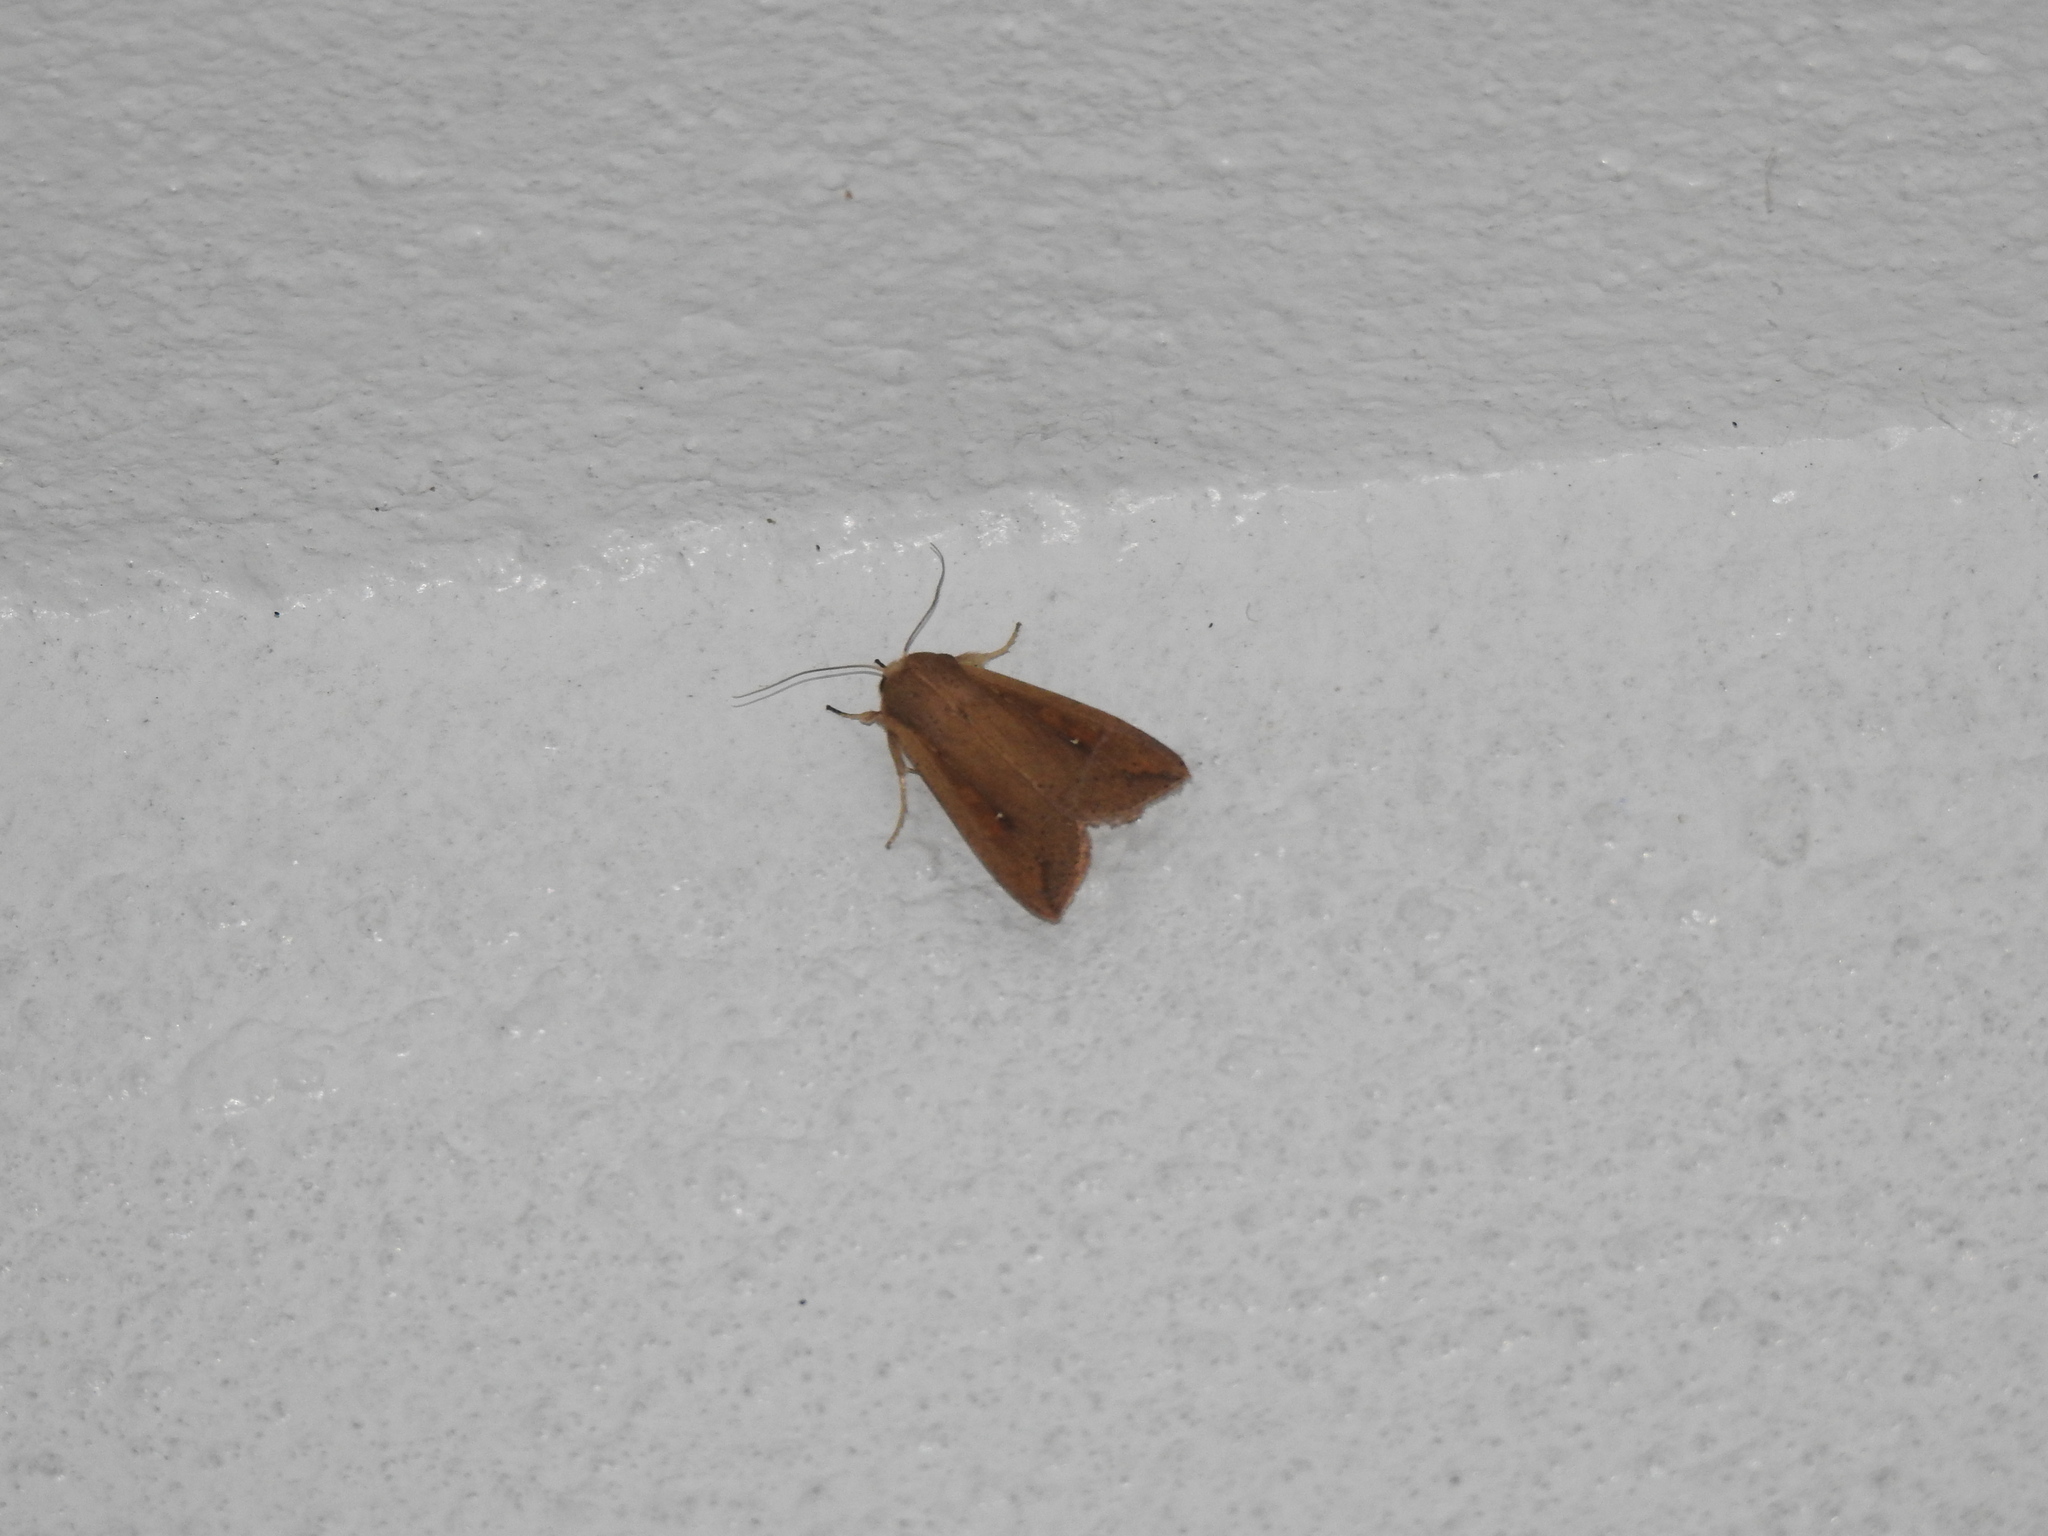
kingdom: Animalia
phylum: Arthropoda
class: Insecta
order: Lepidoptera
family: Noctuidae
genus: Mythimna
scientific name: Mythimna unipuncta
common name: White-speck
